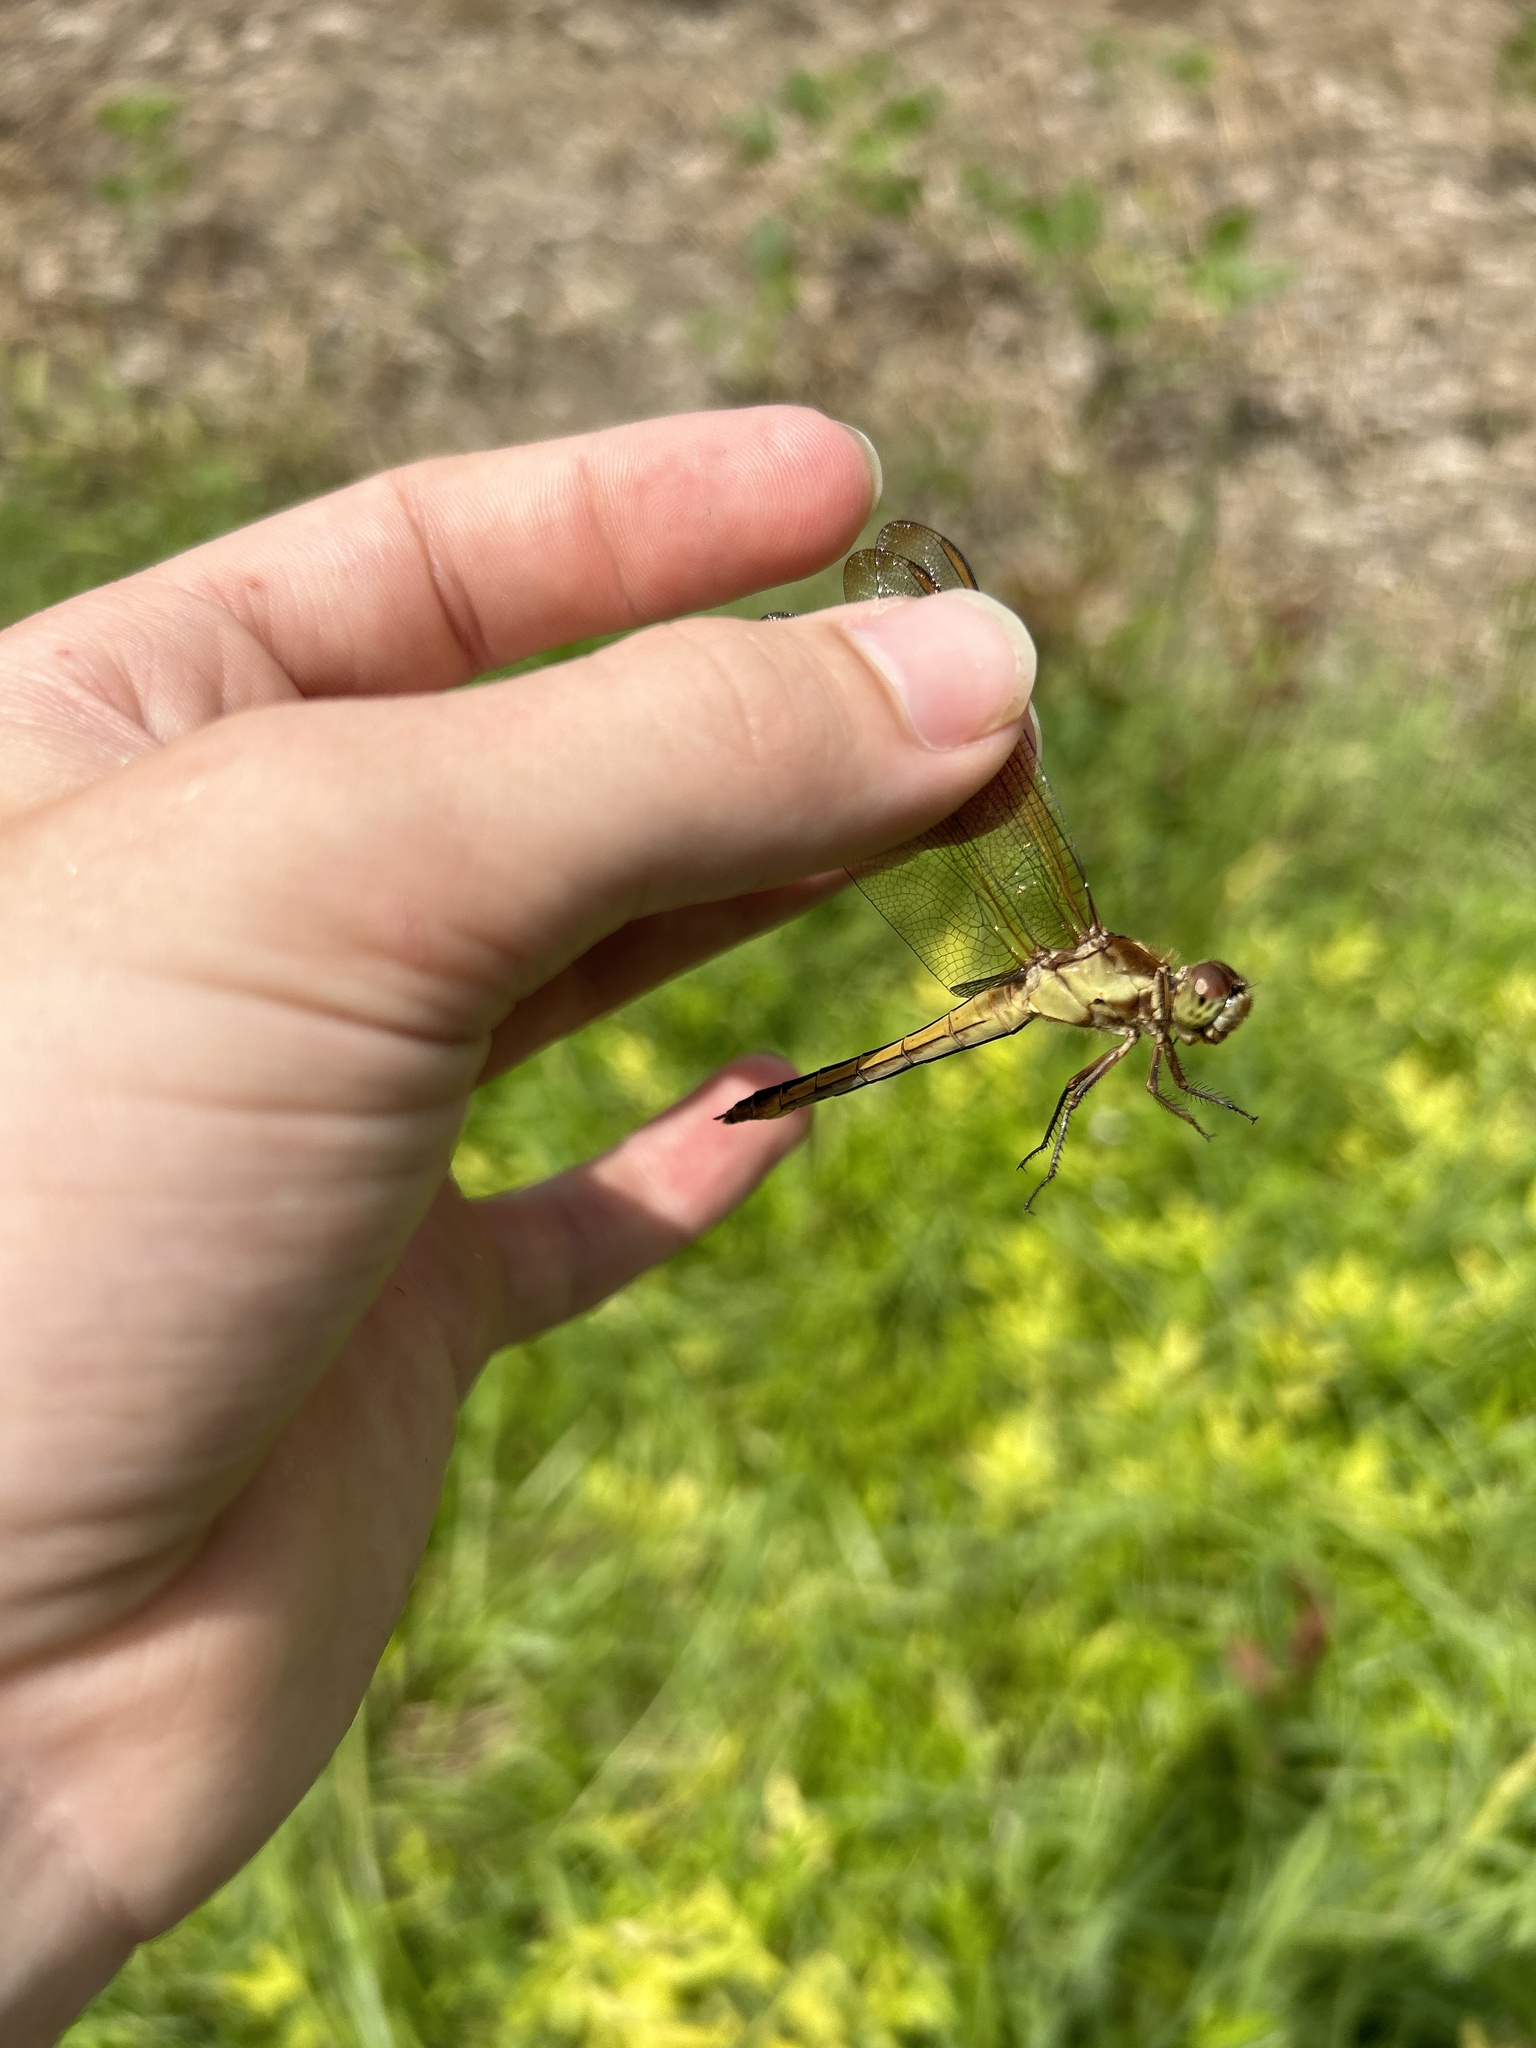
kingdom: Animalia
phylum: Arthropoda
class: Insecta
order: Odonata
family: Libellulidae
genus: Libellula
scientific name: Libellula needhami
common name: Needham's skimmer
